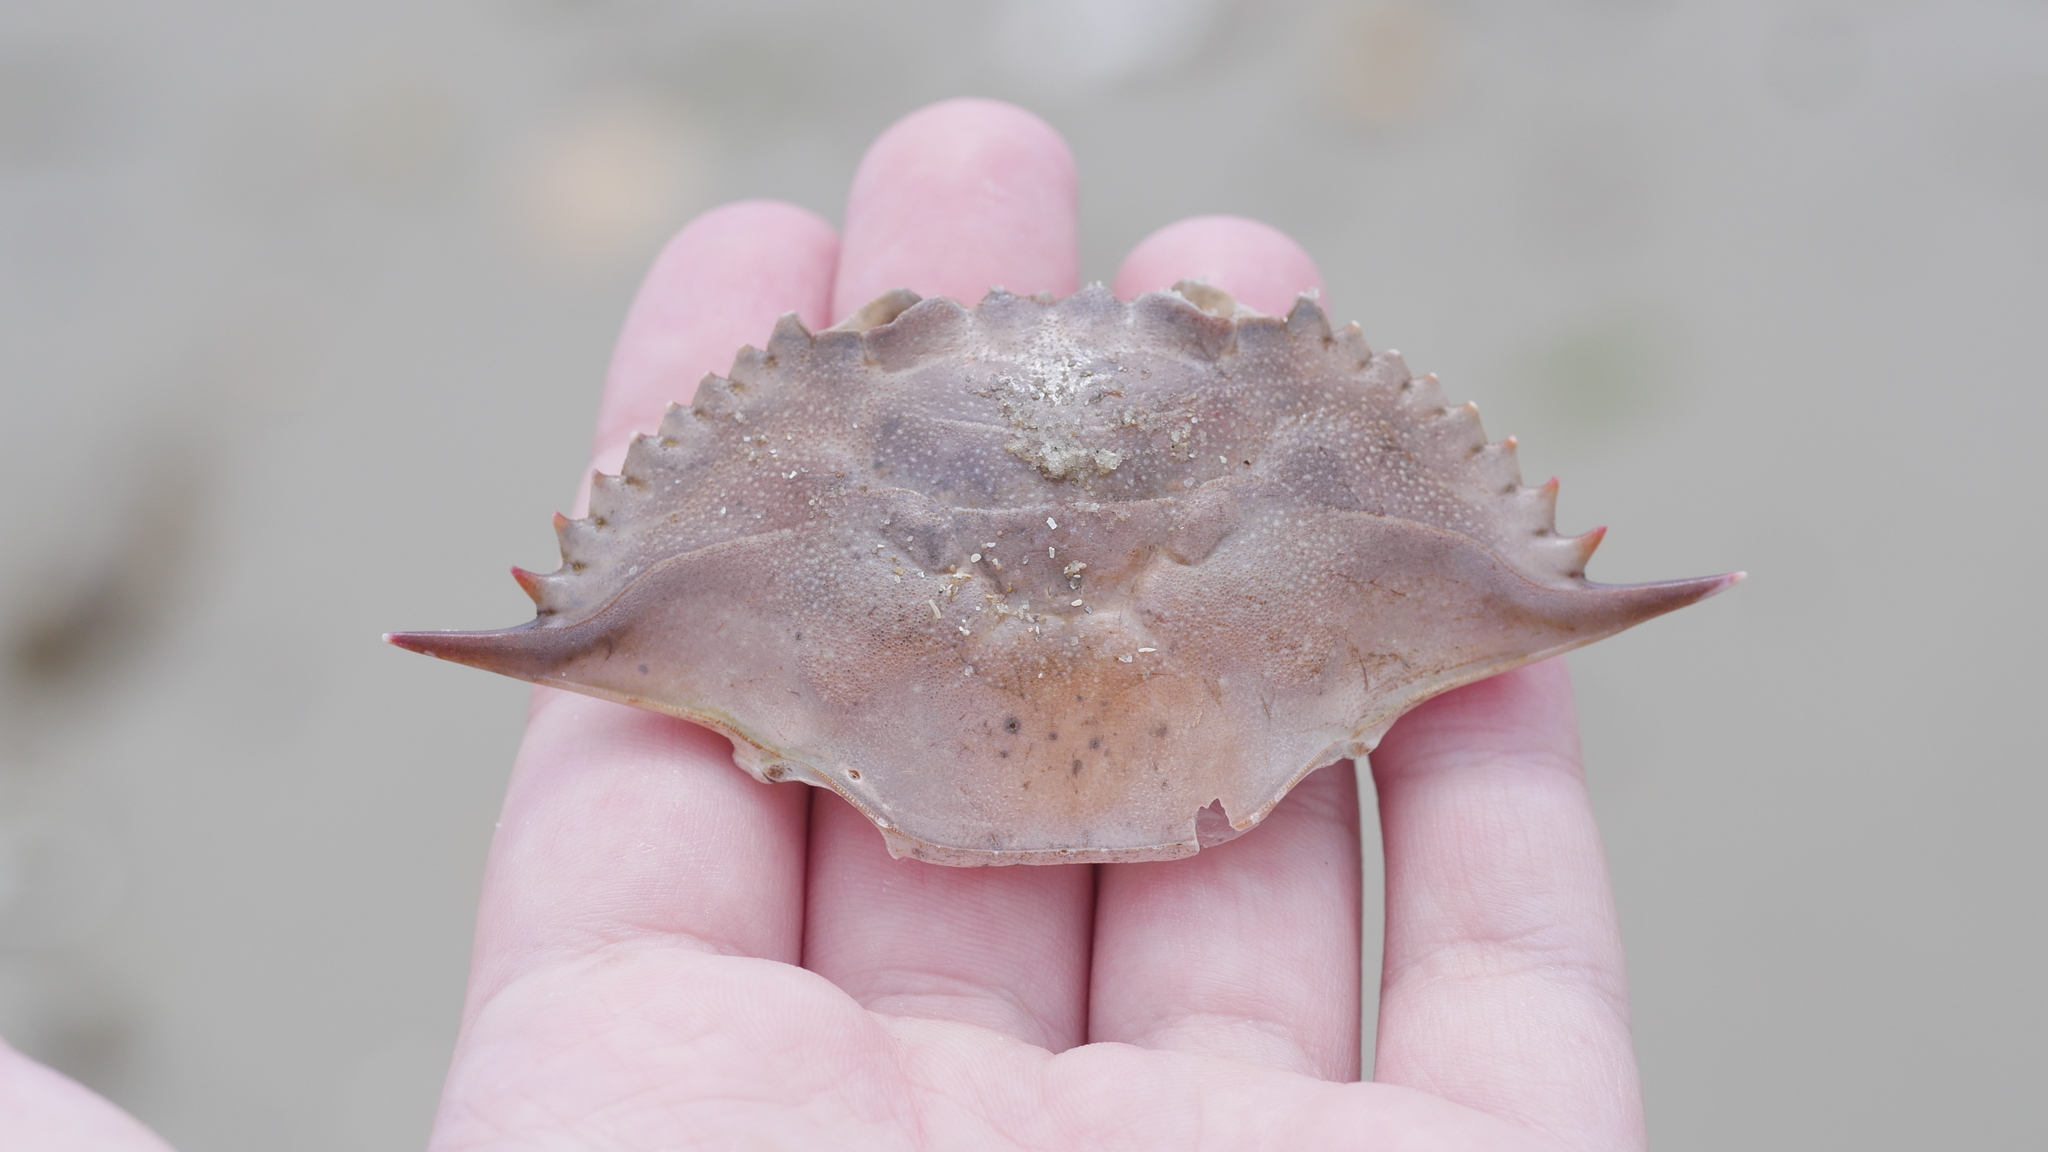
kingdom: Animalia
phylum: Arthropoda
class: Malacostraca
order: Decapoda
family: Portunidae
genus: Callinectes
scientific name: Callinectes sapidus
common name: Blue crab
